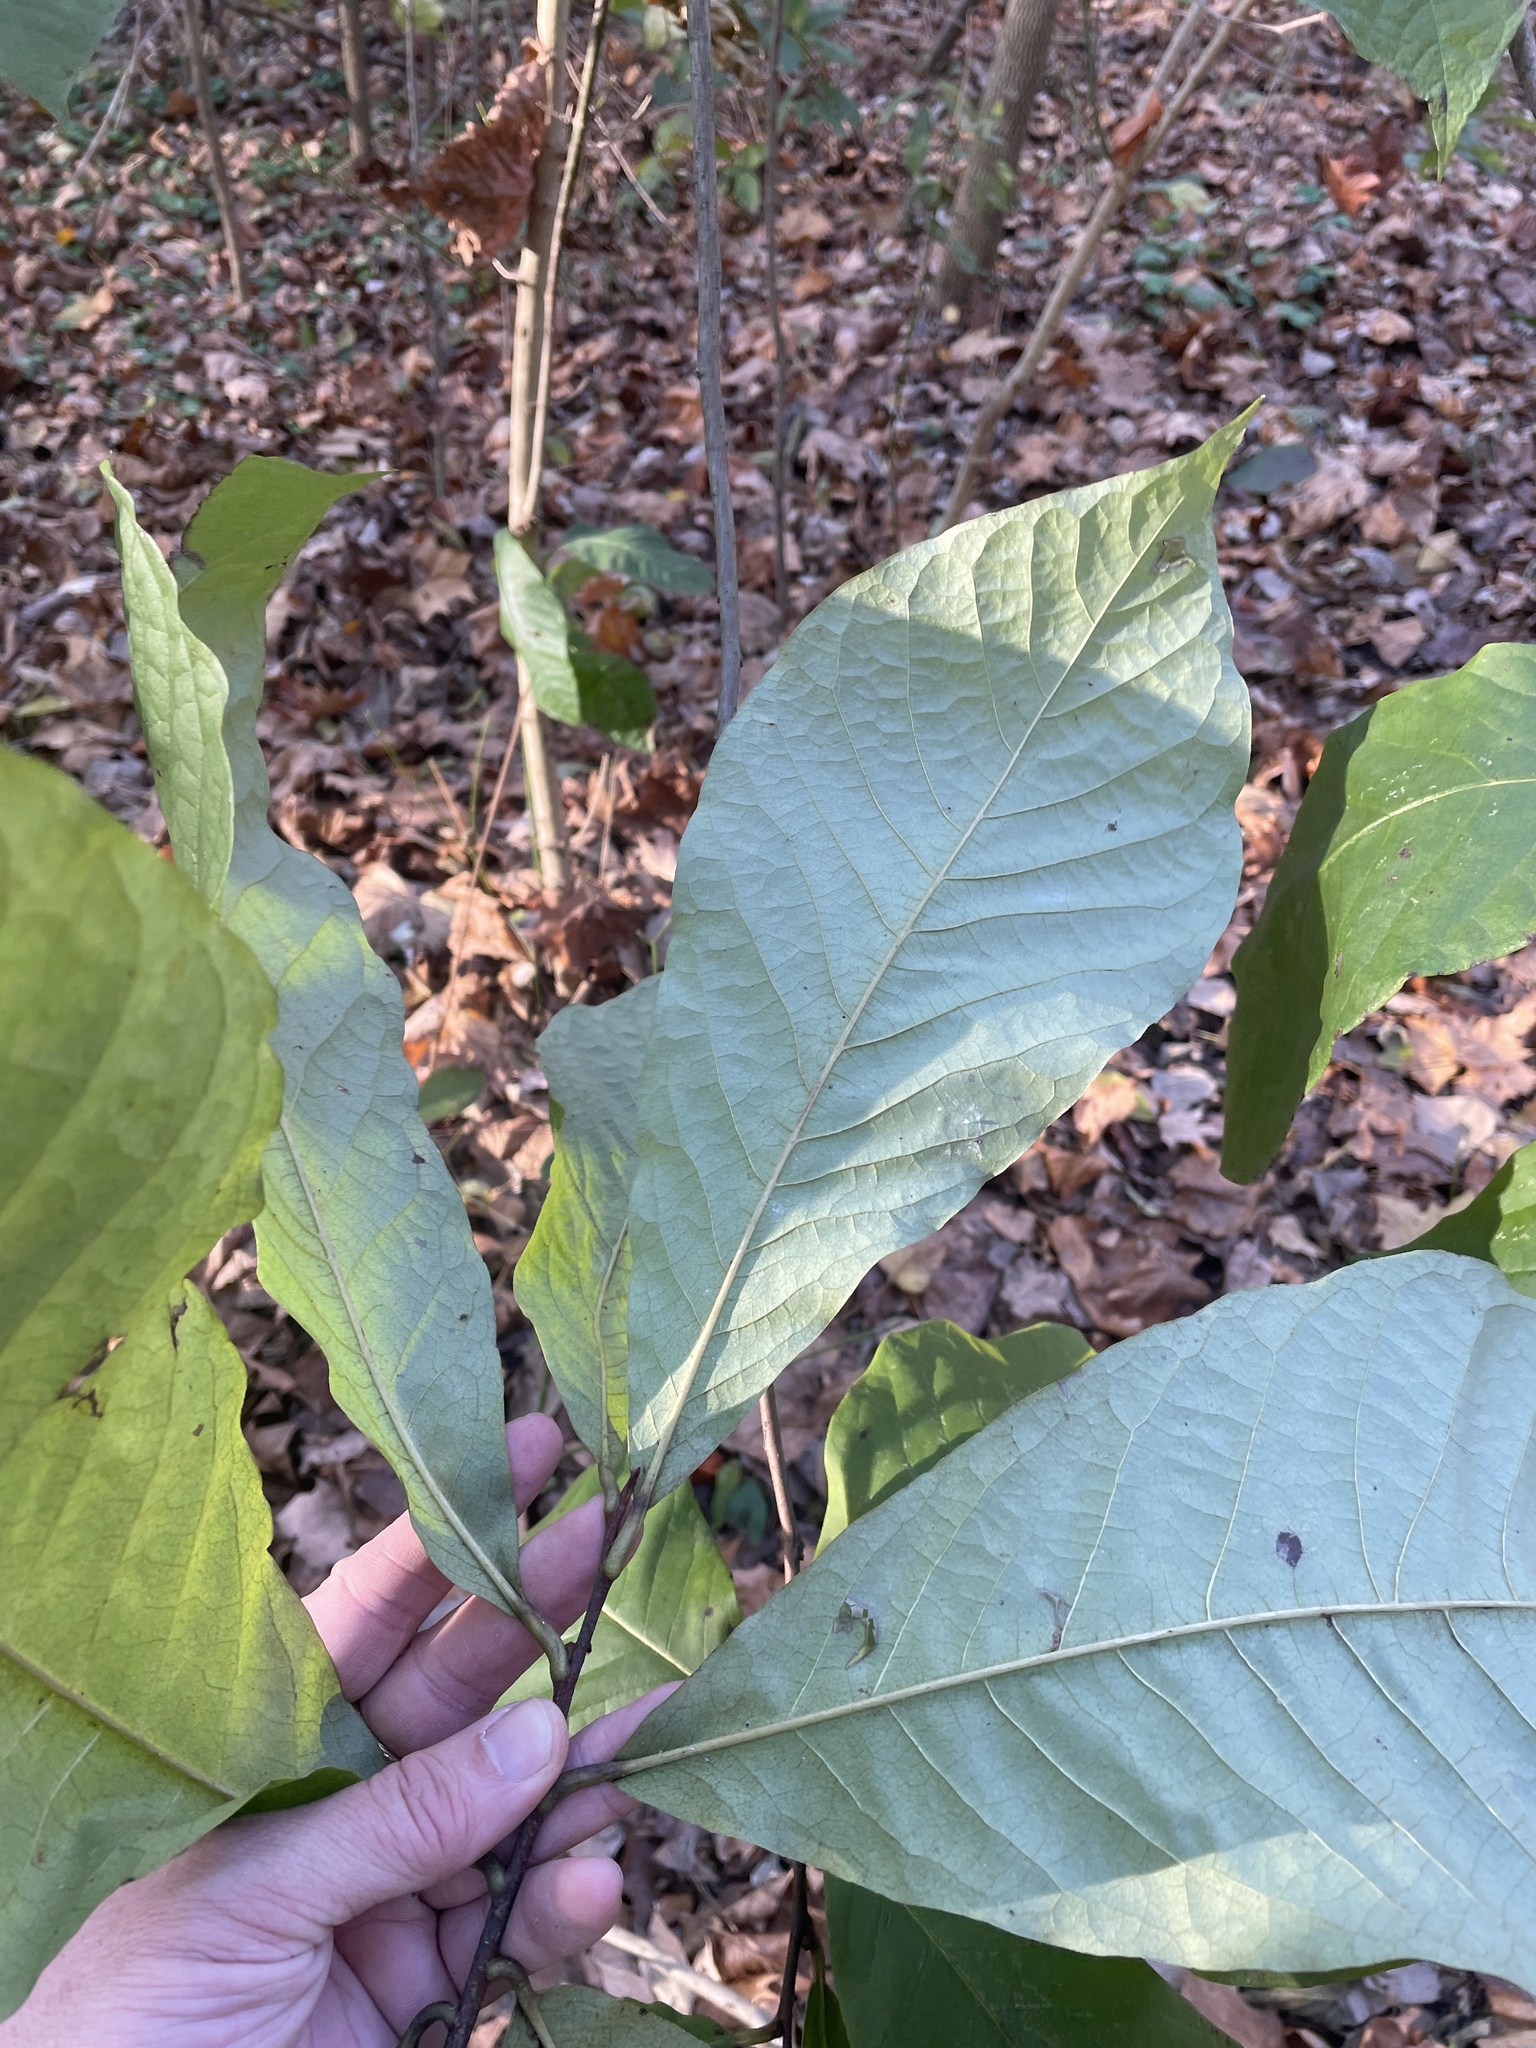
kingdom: Plantae
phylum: Tracheophyta
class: Magnoliopsida
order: Magnoliales
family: Annonaceae
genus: Asimina
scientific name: Asimina triloba
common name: Dog-banana
